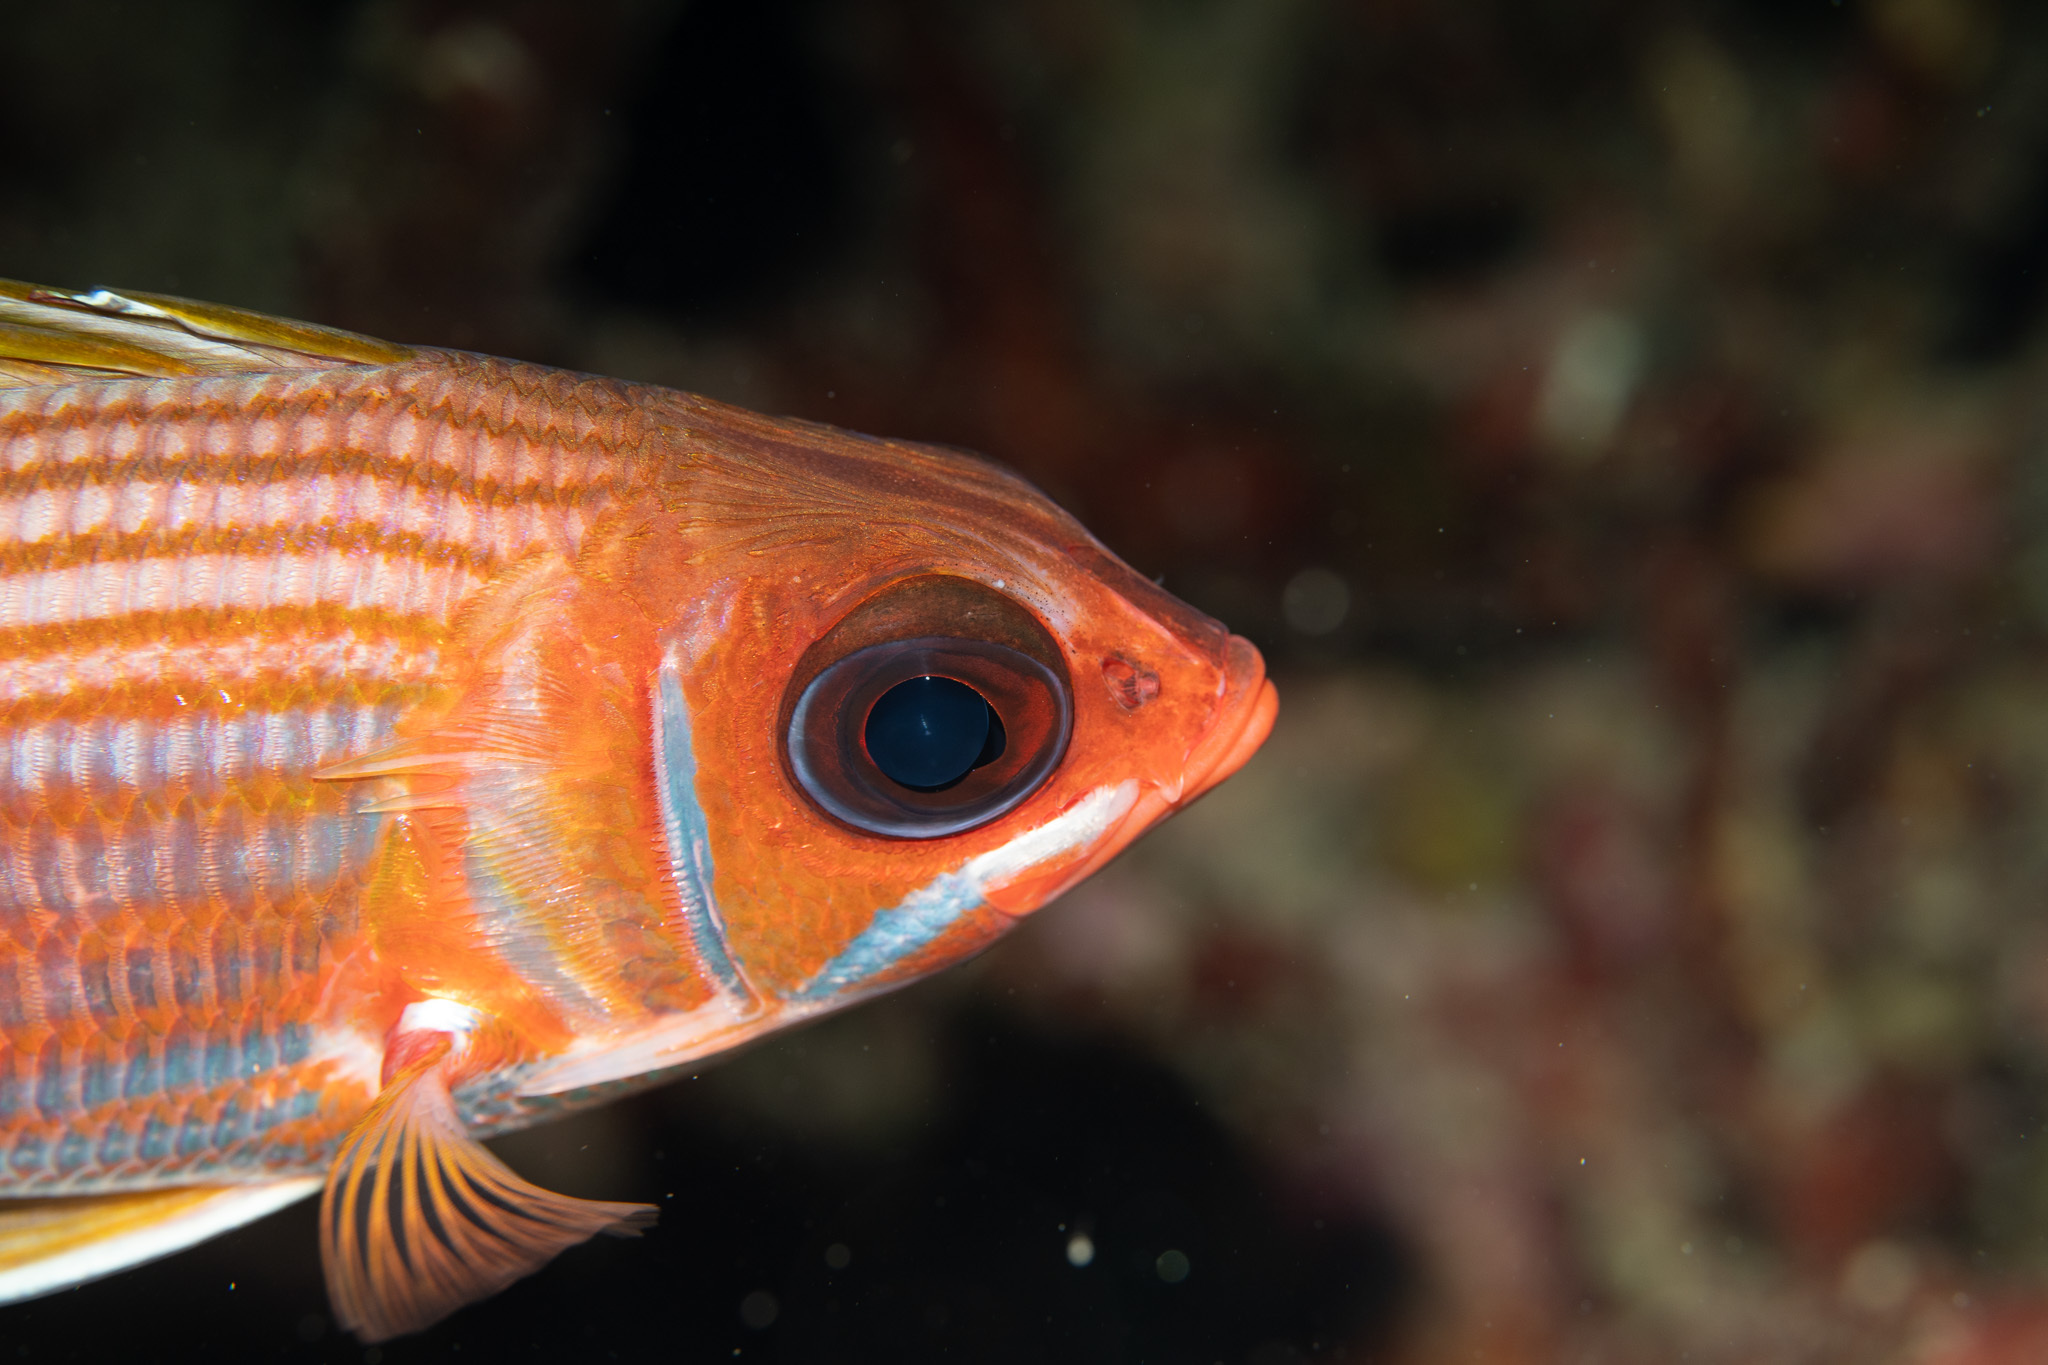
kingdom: Animalia
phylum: Chordata
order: Beryciformes
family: Holocentridae
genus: Holocentrus
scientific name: Holocentrus rufus
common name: Longspine squirrelfish
